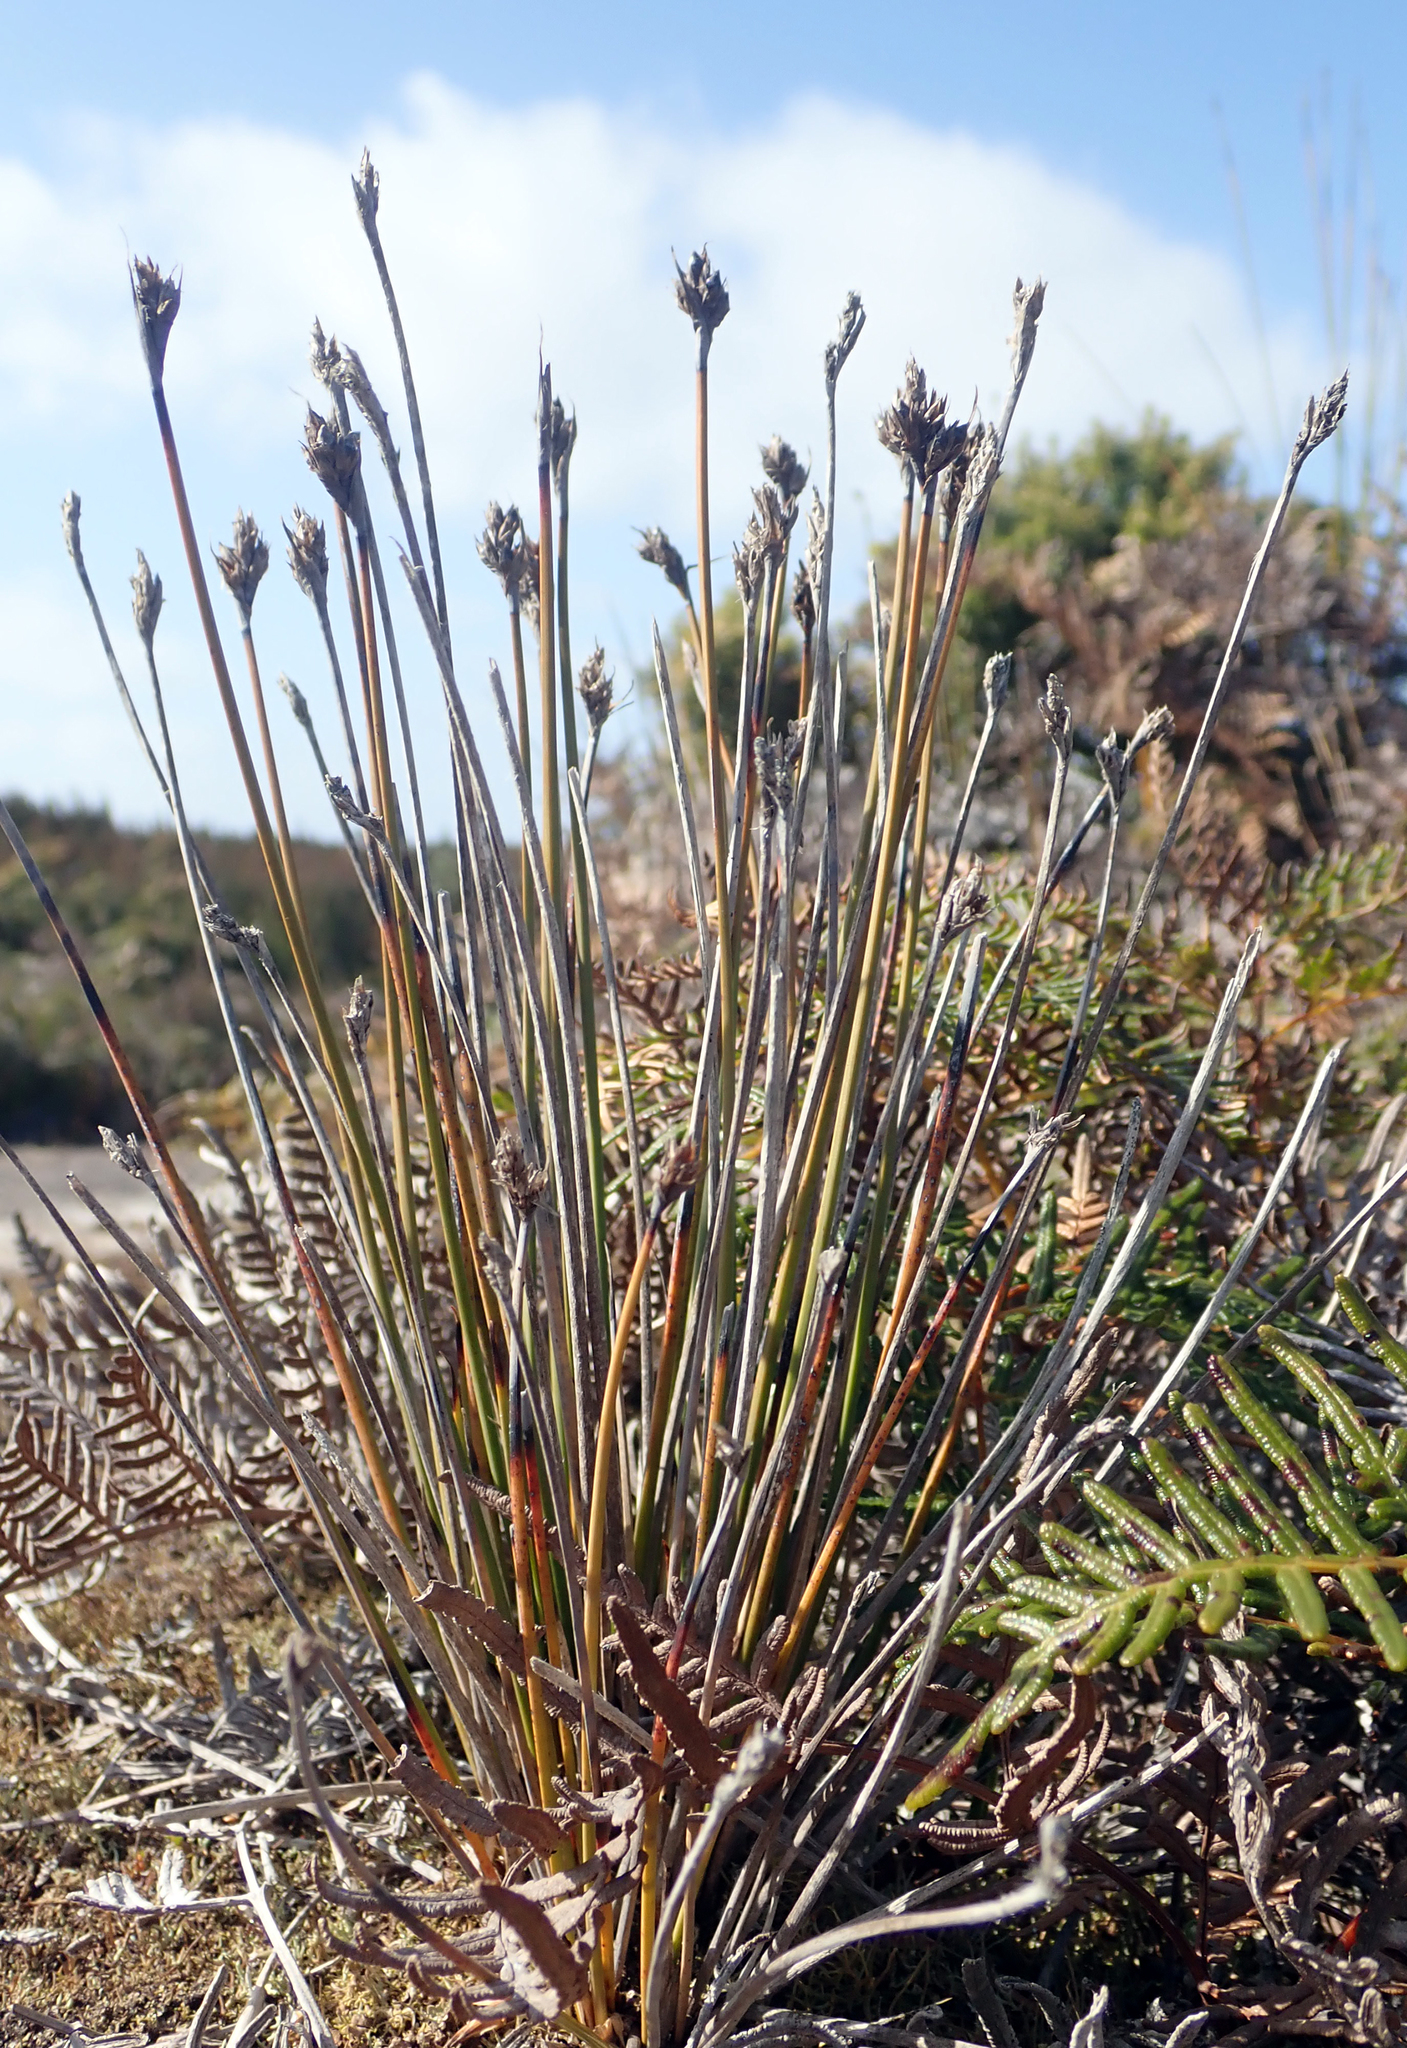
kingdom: Plantae
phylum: Tracheophyta
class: Liliopsida
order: Poales
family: Cyperaceae
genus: Lepidosperma
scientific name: Lepidosperma australe
